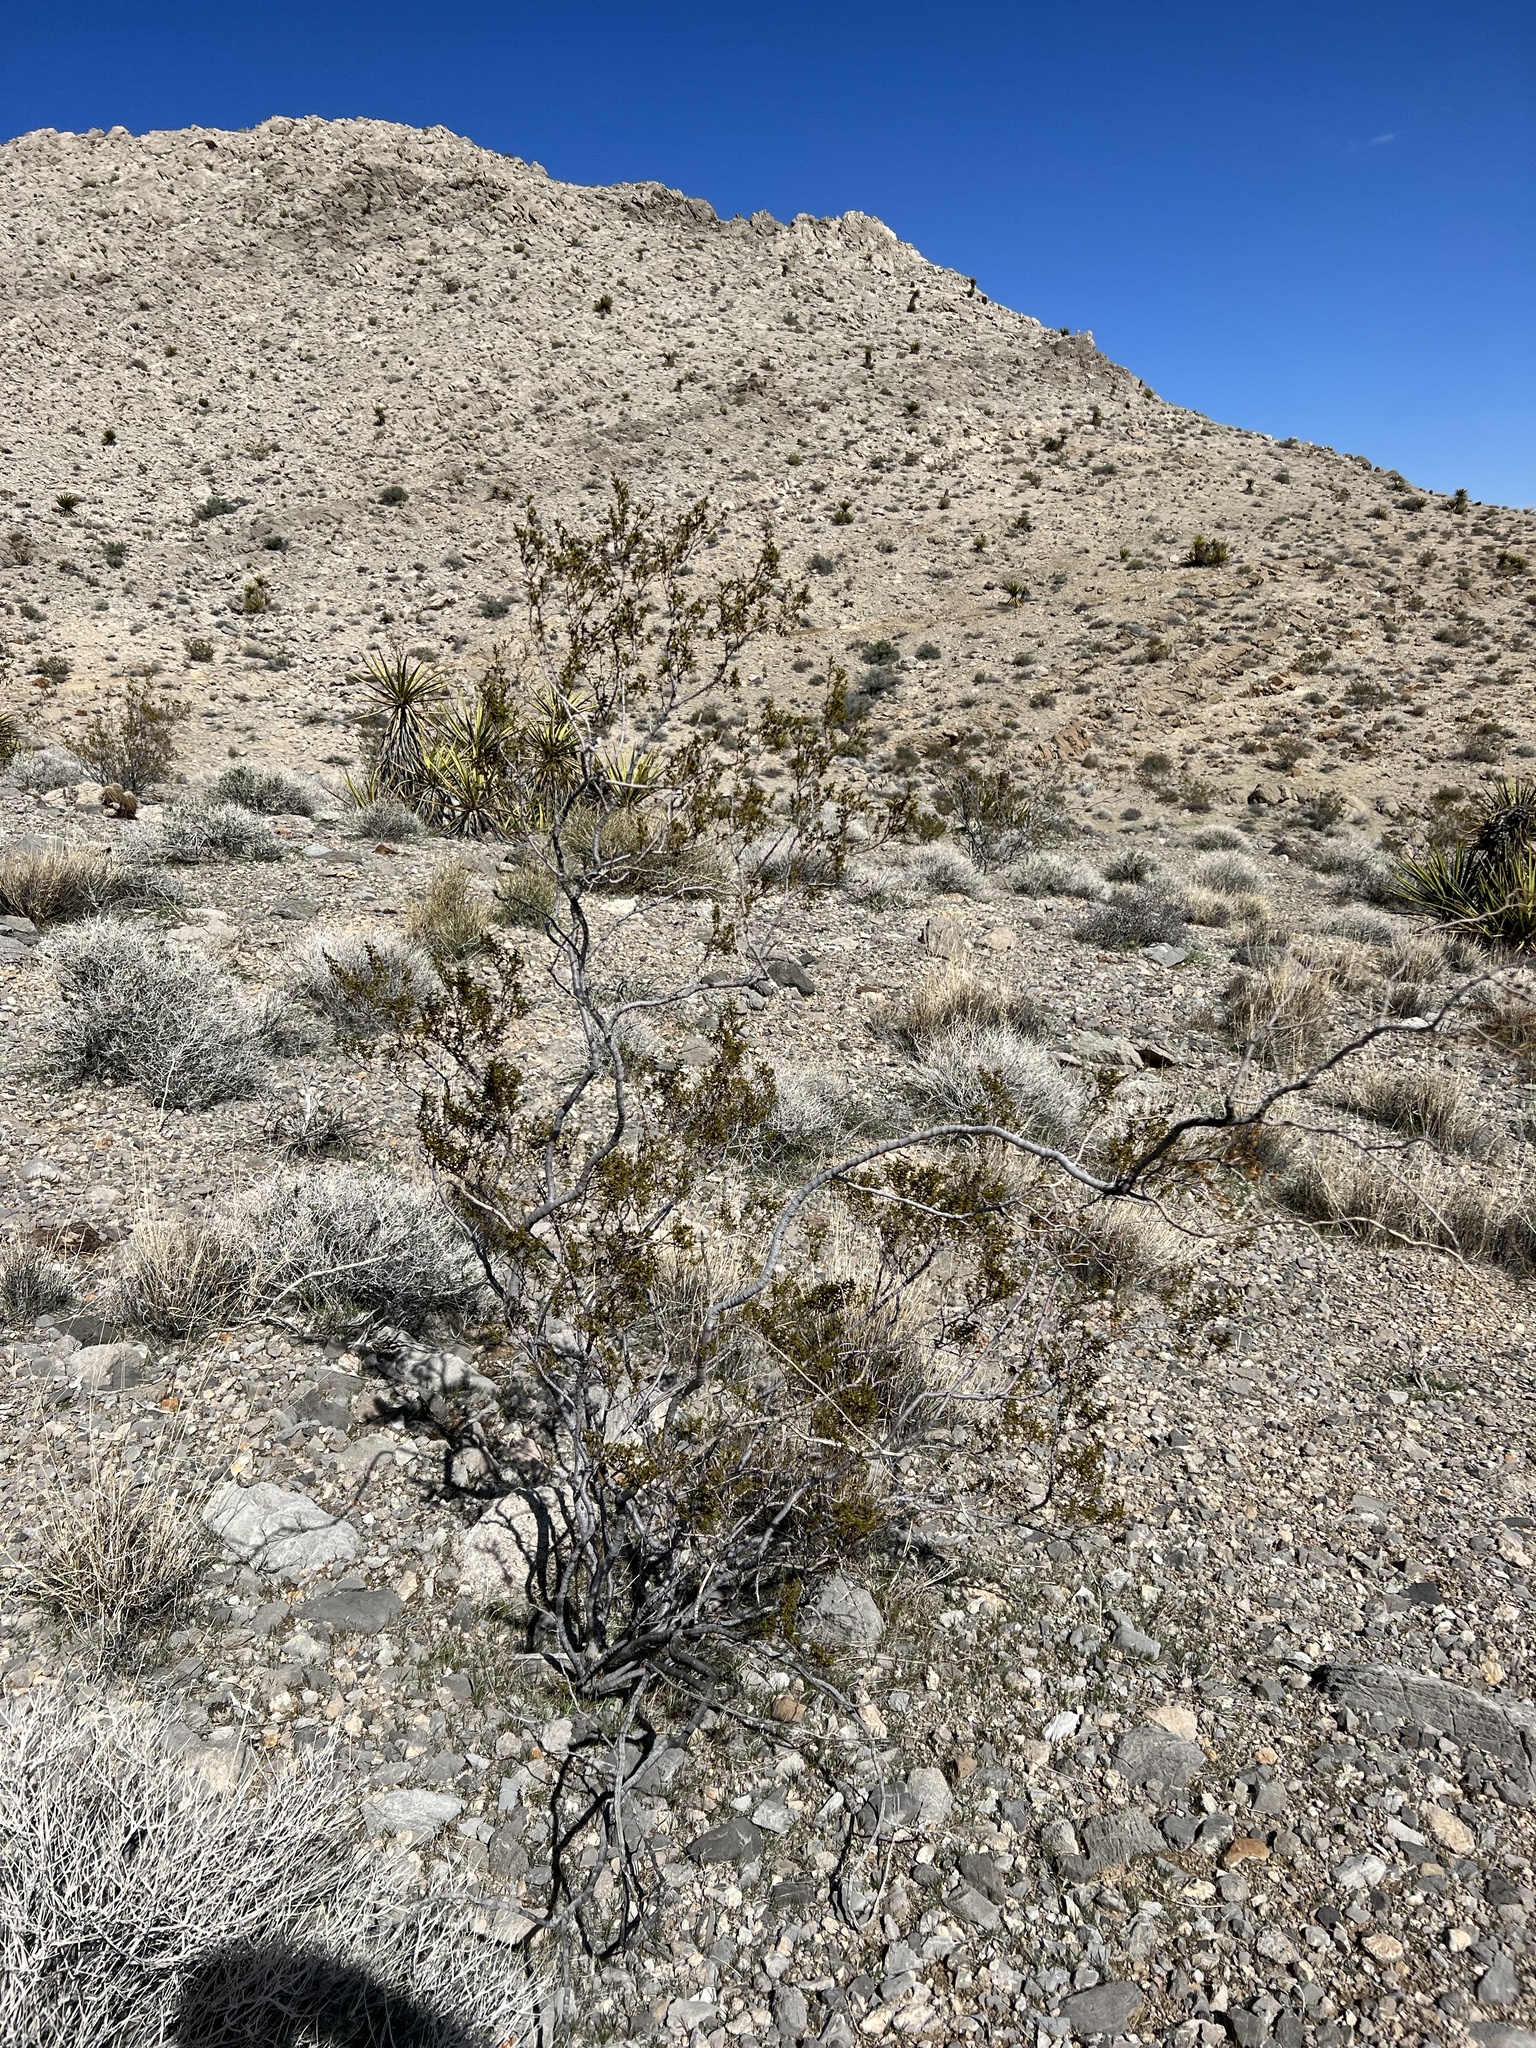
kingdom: Plantae
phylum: Tracheophyta
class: Magnoliopsida
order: Zygophyllales
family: Zygophyllaceae
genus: Larrea
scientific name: Larrea tridentata
